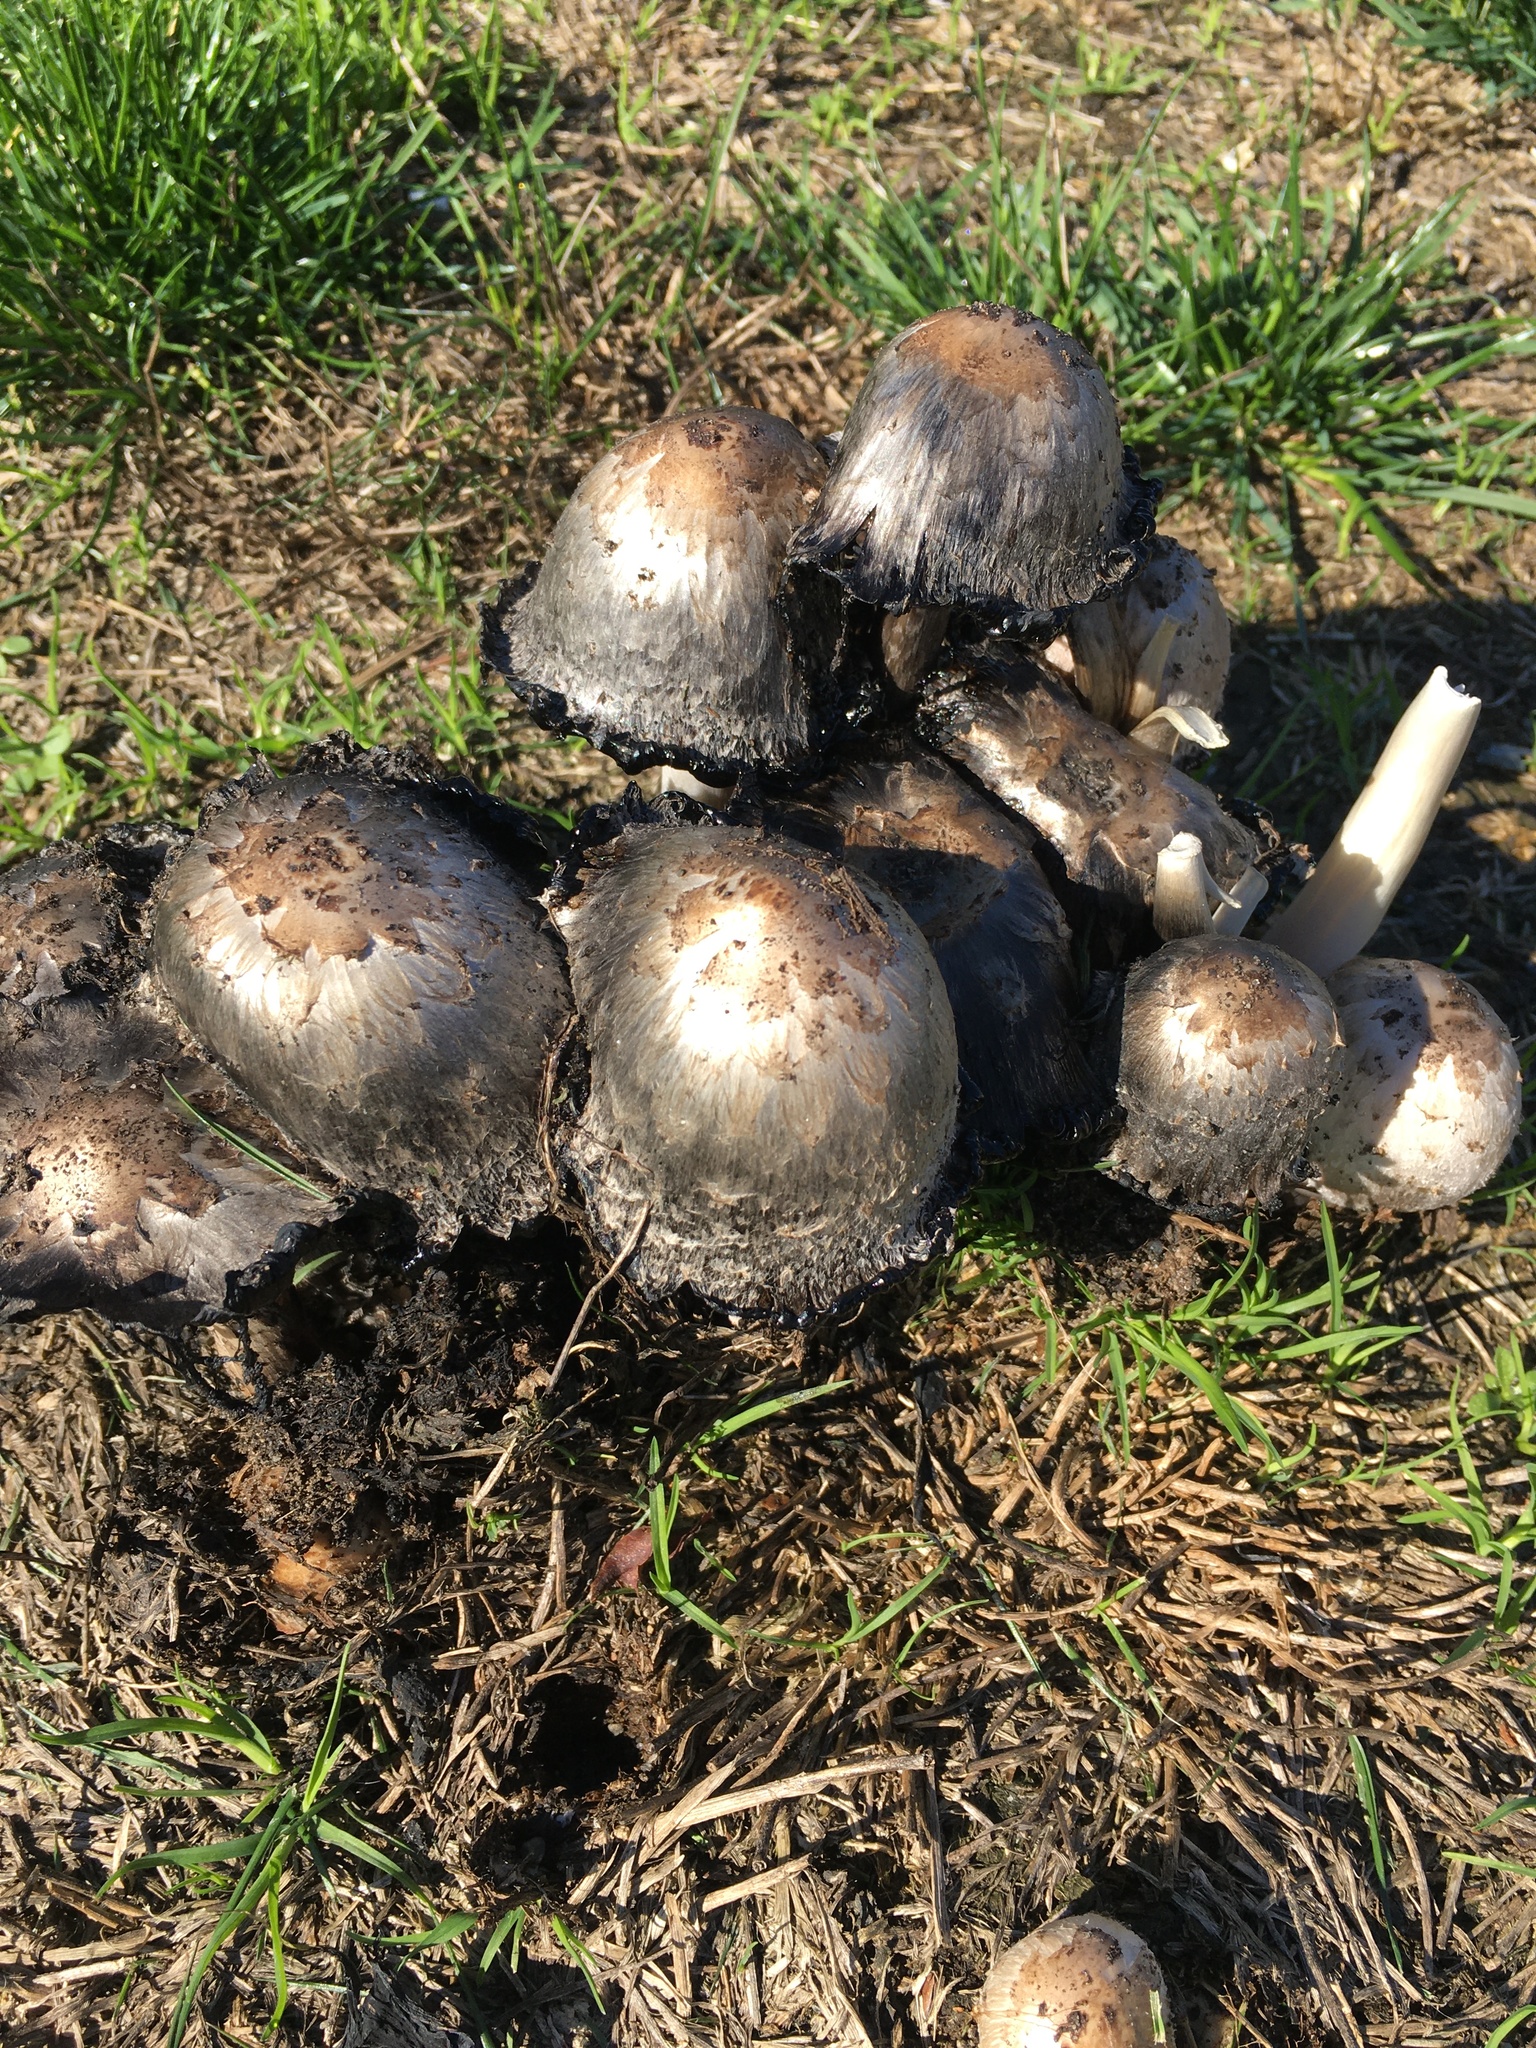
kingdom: Fungi
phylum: Basidiomycota
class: Agaricomycetes
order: Agaricales
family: Agaricaceae
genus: Coprinus
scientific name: Coprinus comatus
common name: Lawyer's wig
